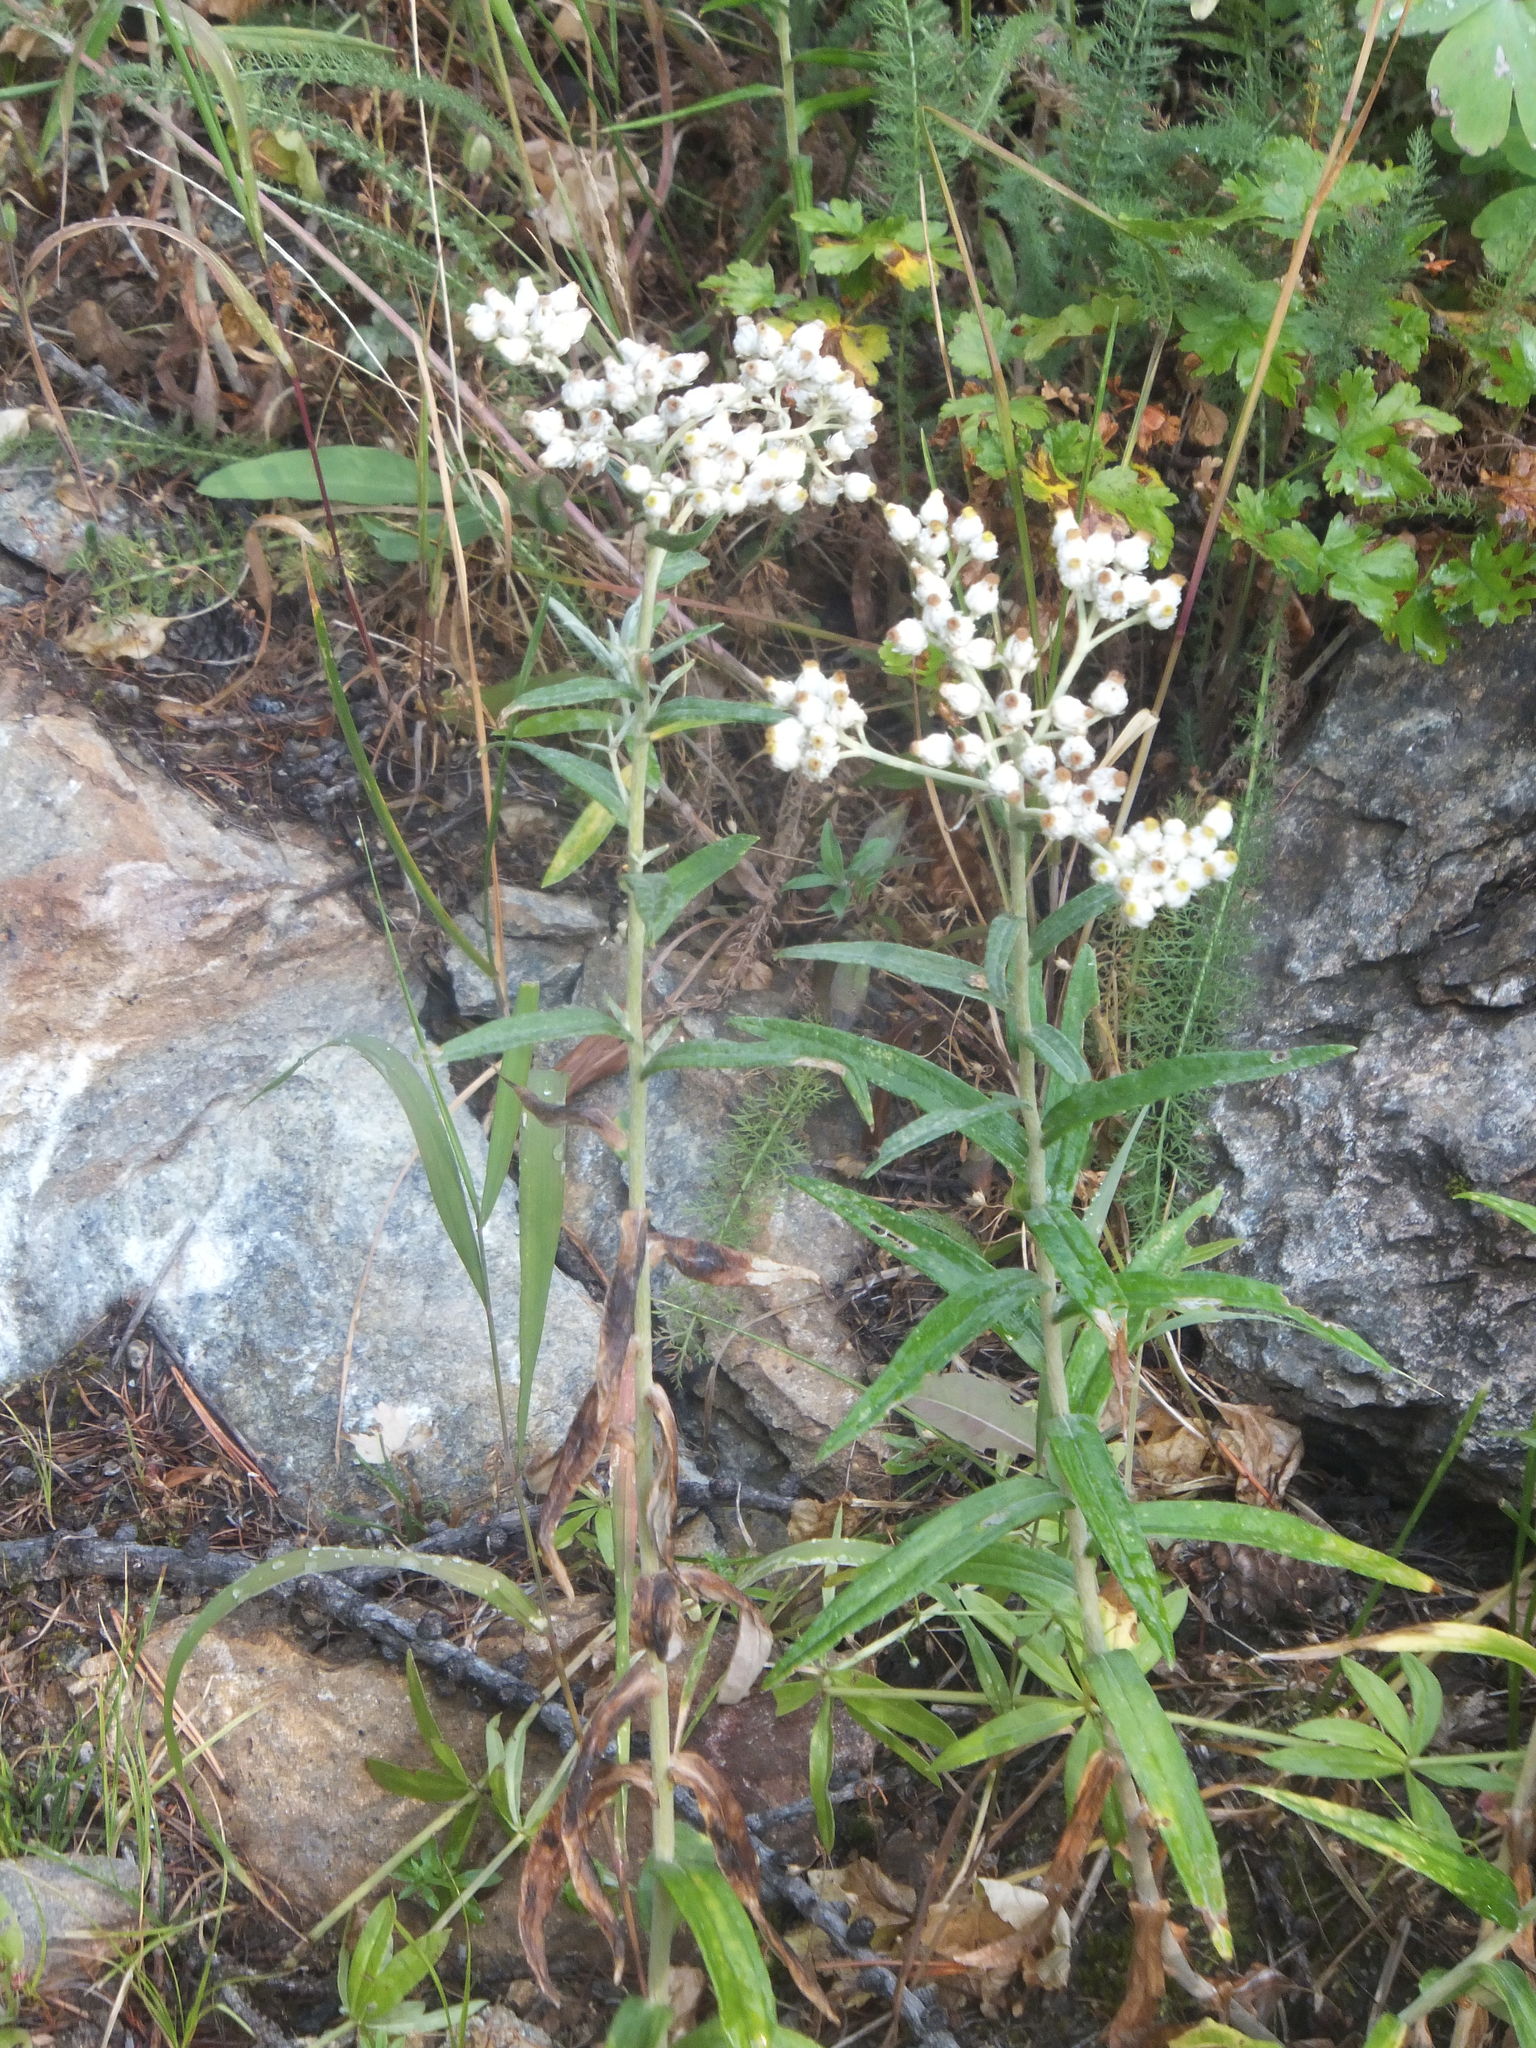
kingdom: Plantae
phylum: Tracheophyta
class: Magnoliopsida
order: Asterales
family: Asteraceae
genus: Anaphalis
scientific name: Anaphalis margaritacea
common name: Pearly everlasting
